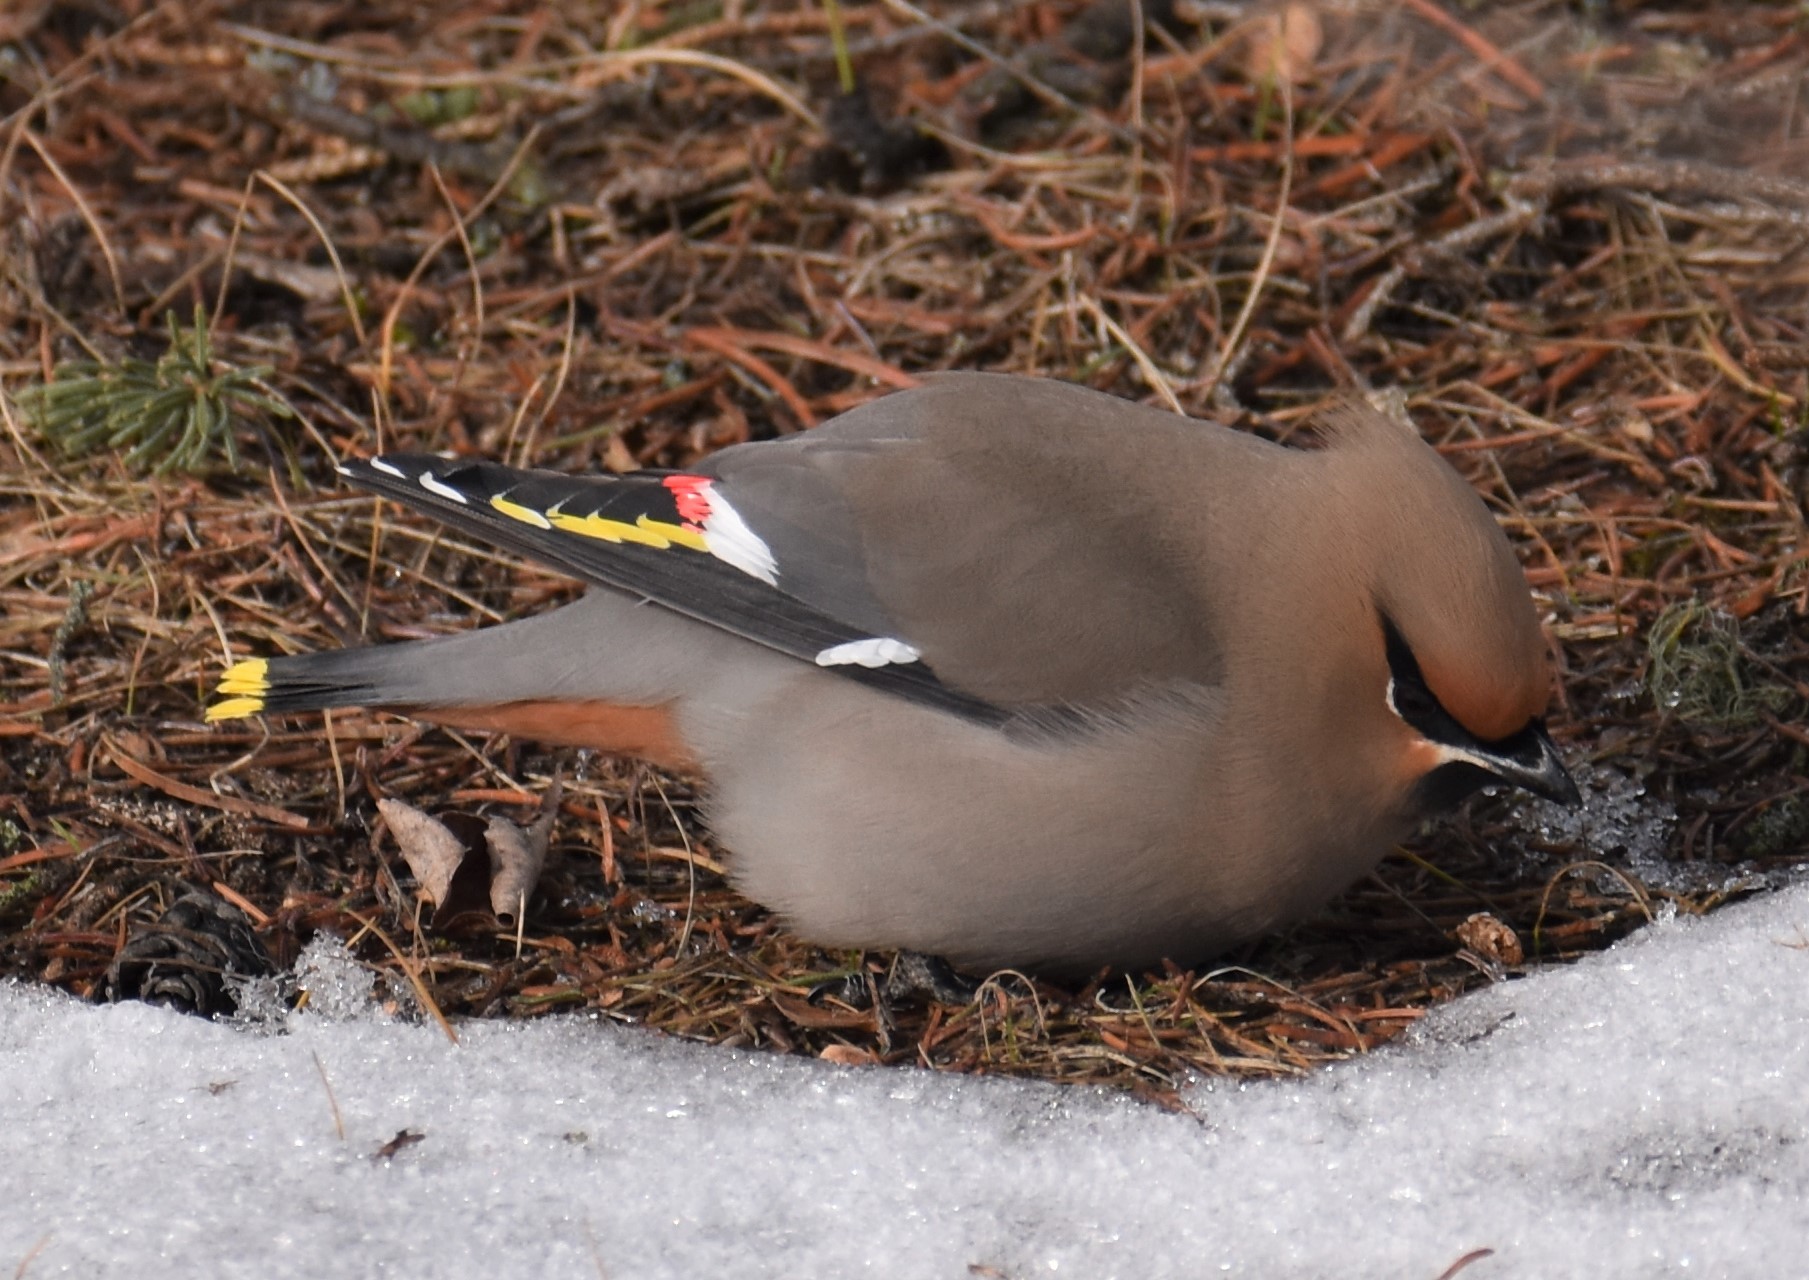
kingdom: Animalia
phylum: Chordata
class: Aves
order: Passeriformes
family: Bombycillidae
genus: Bombycilla
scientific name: Bombycilla garrulus
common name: Bohemian waxwing
